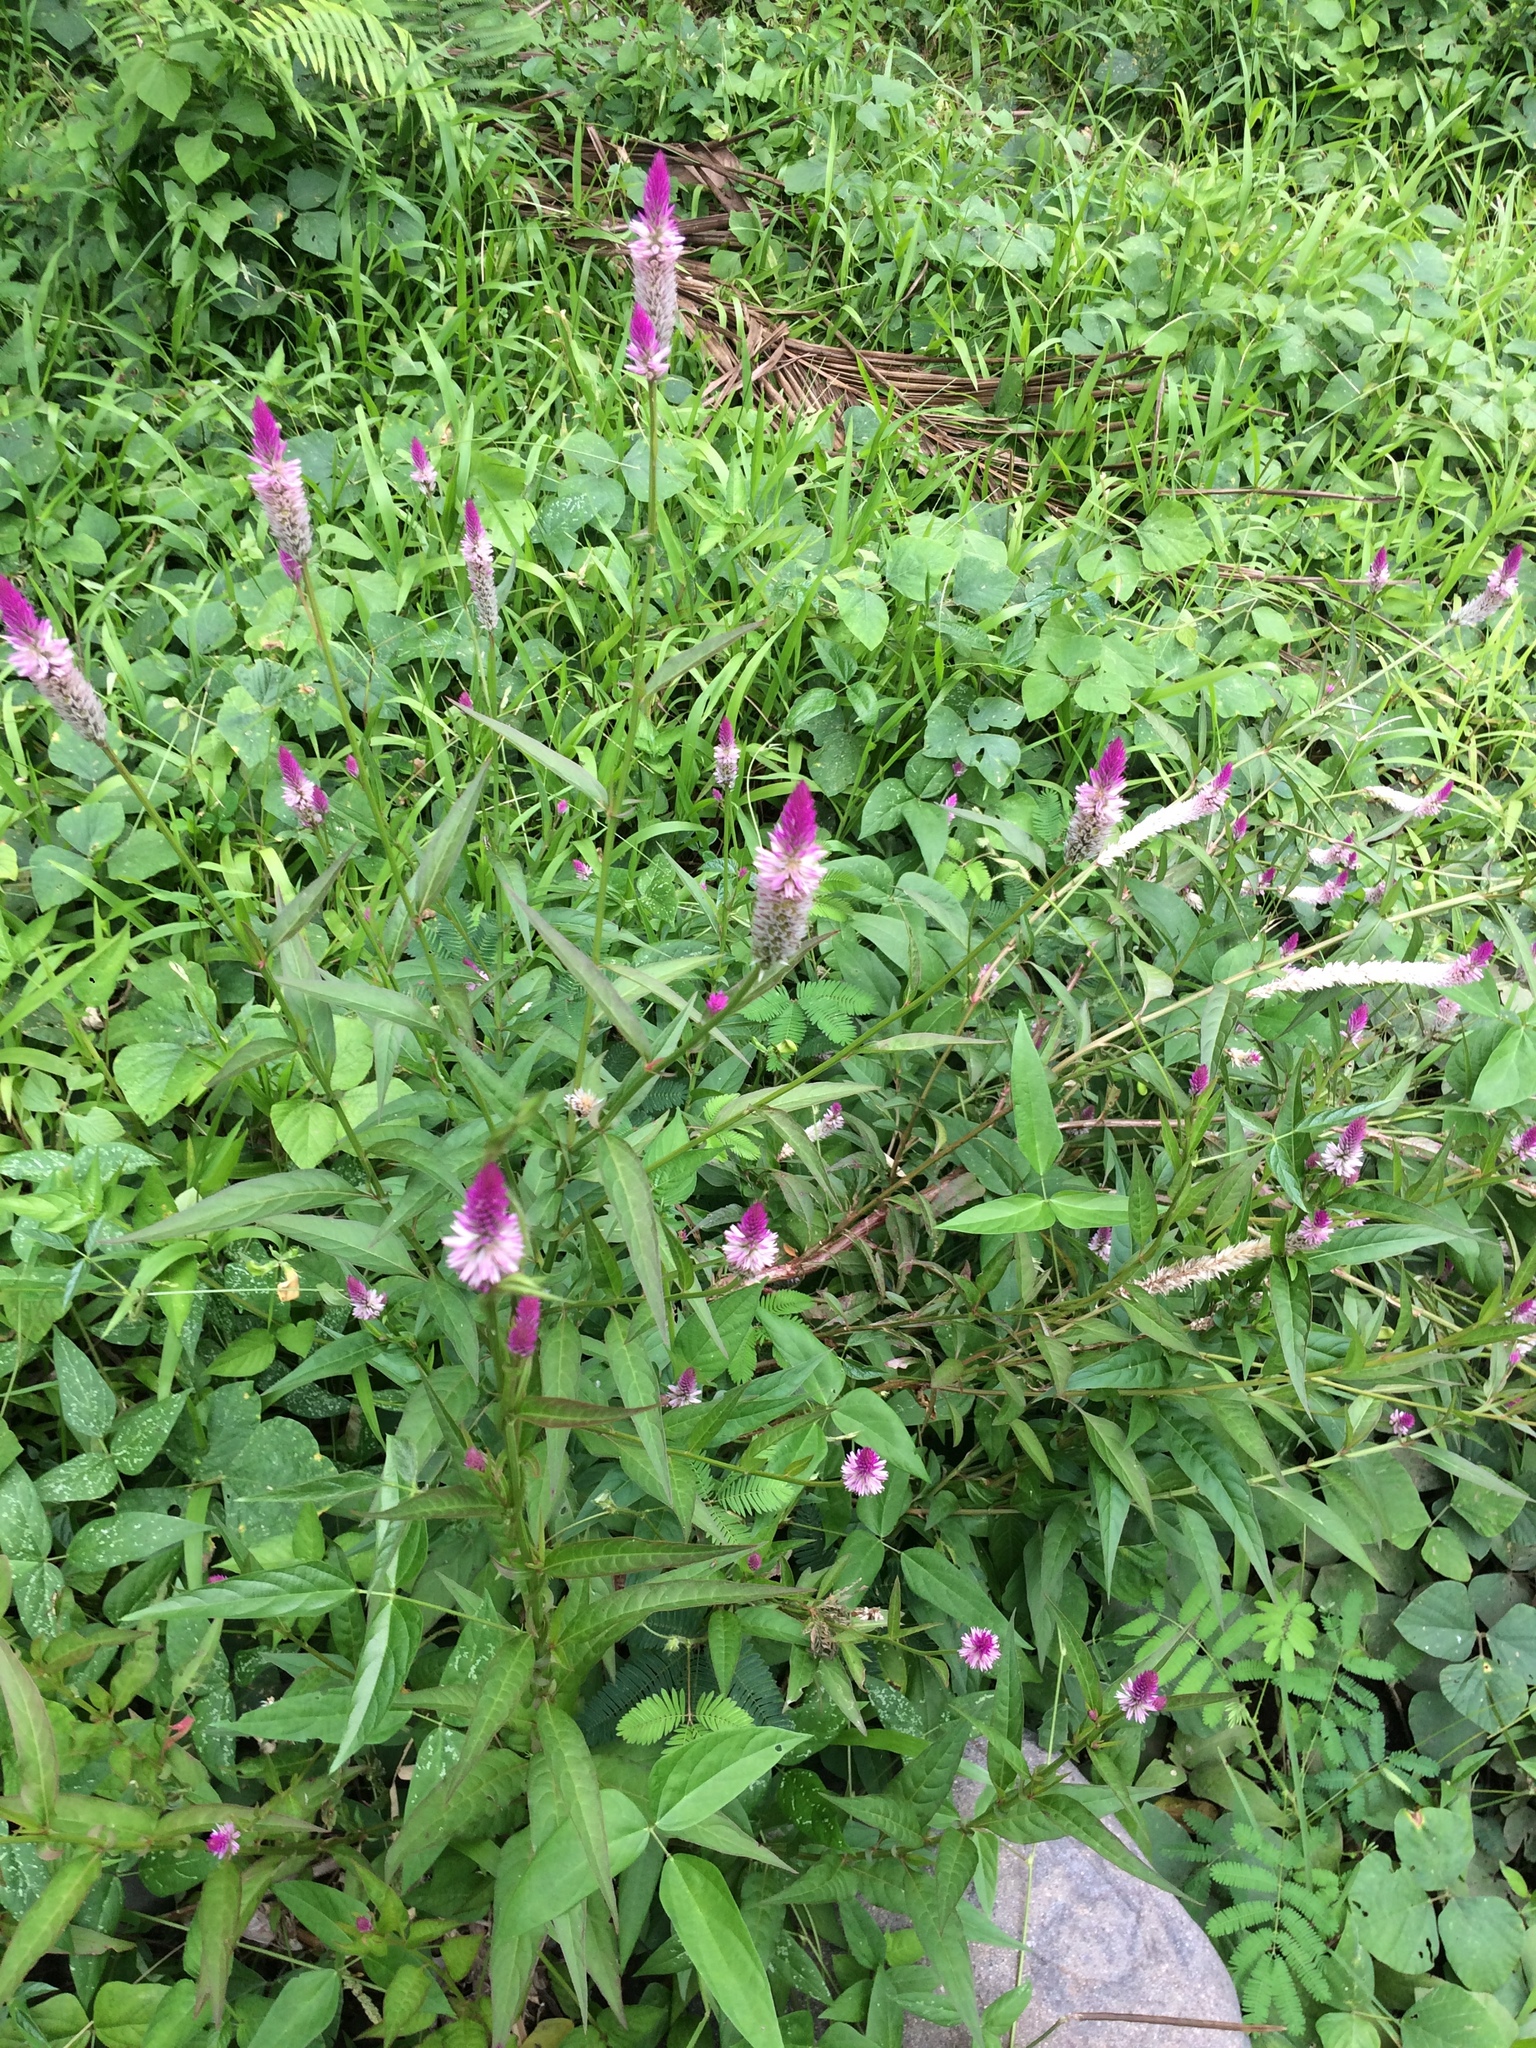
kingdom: Plantae
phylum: Tracheophyta
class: Magnoliopsida
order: Caryophyllales
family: Amaranthaceae
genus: Celosia
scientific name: Celosia argentea
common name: Feather cockscomb
